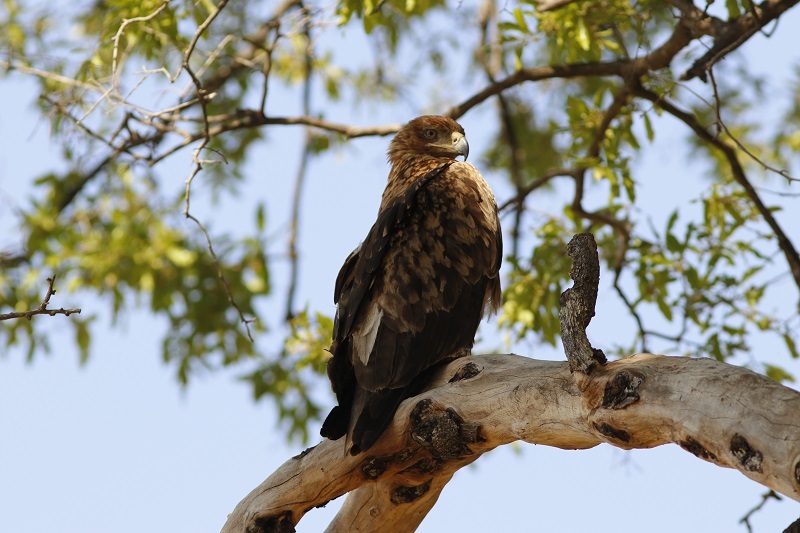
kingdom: Animalia
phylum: Chordata
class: Aves
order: Accipitriformes
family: Accipitridae
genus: Aquila
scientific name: Aquila rapax
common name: Tawny eagle
